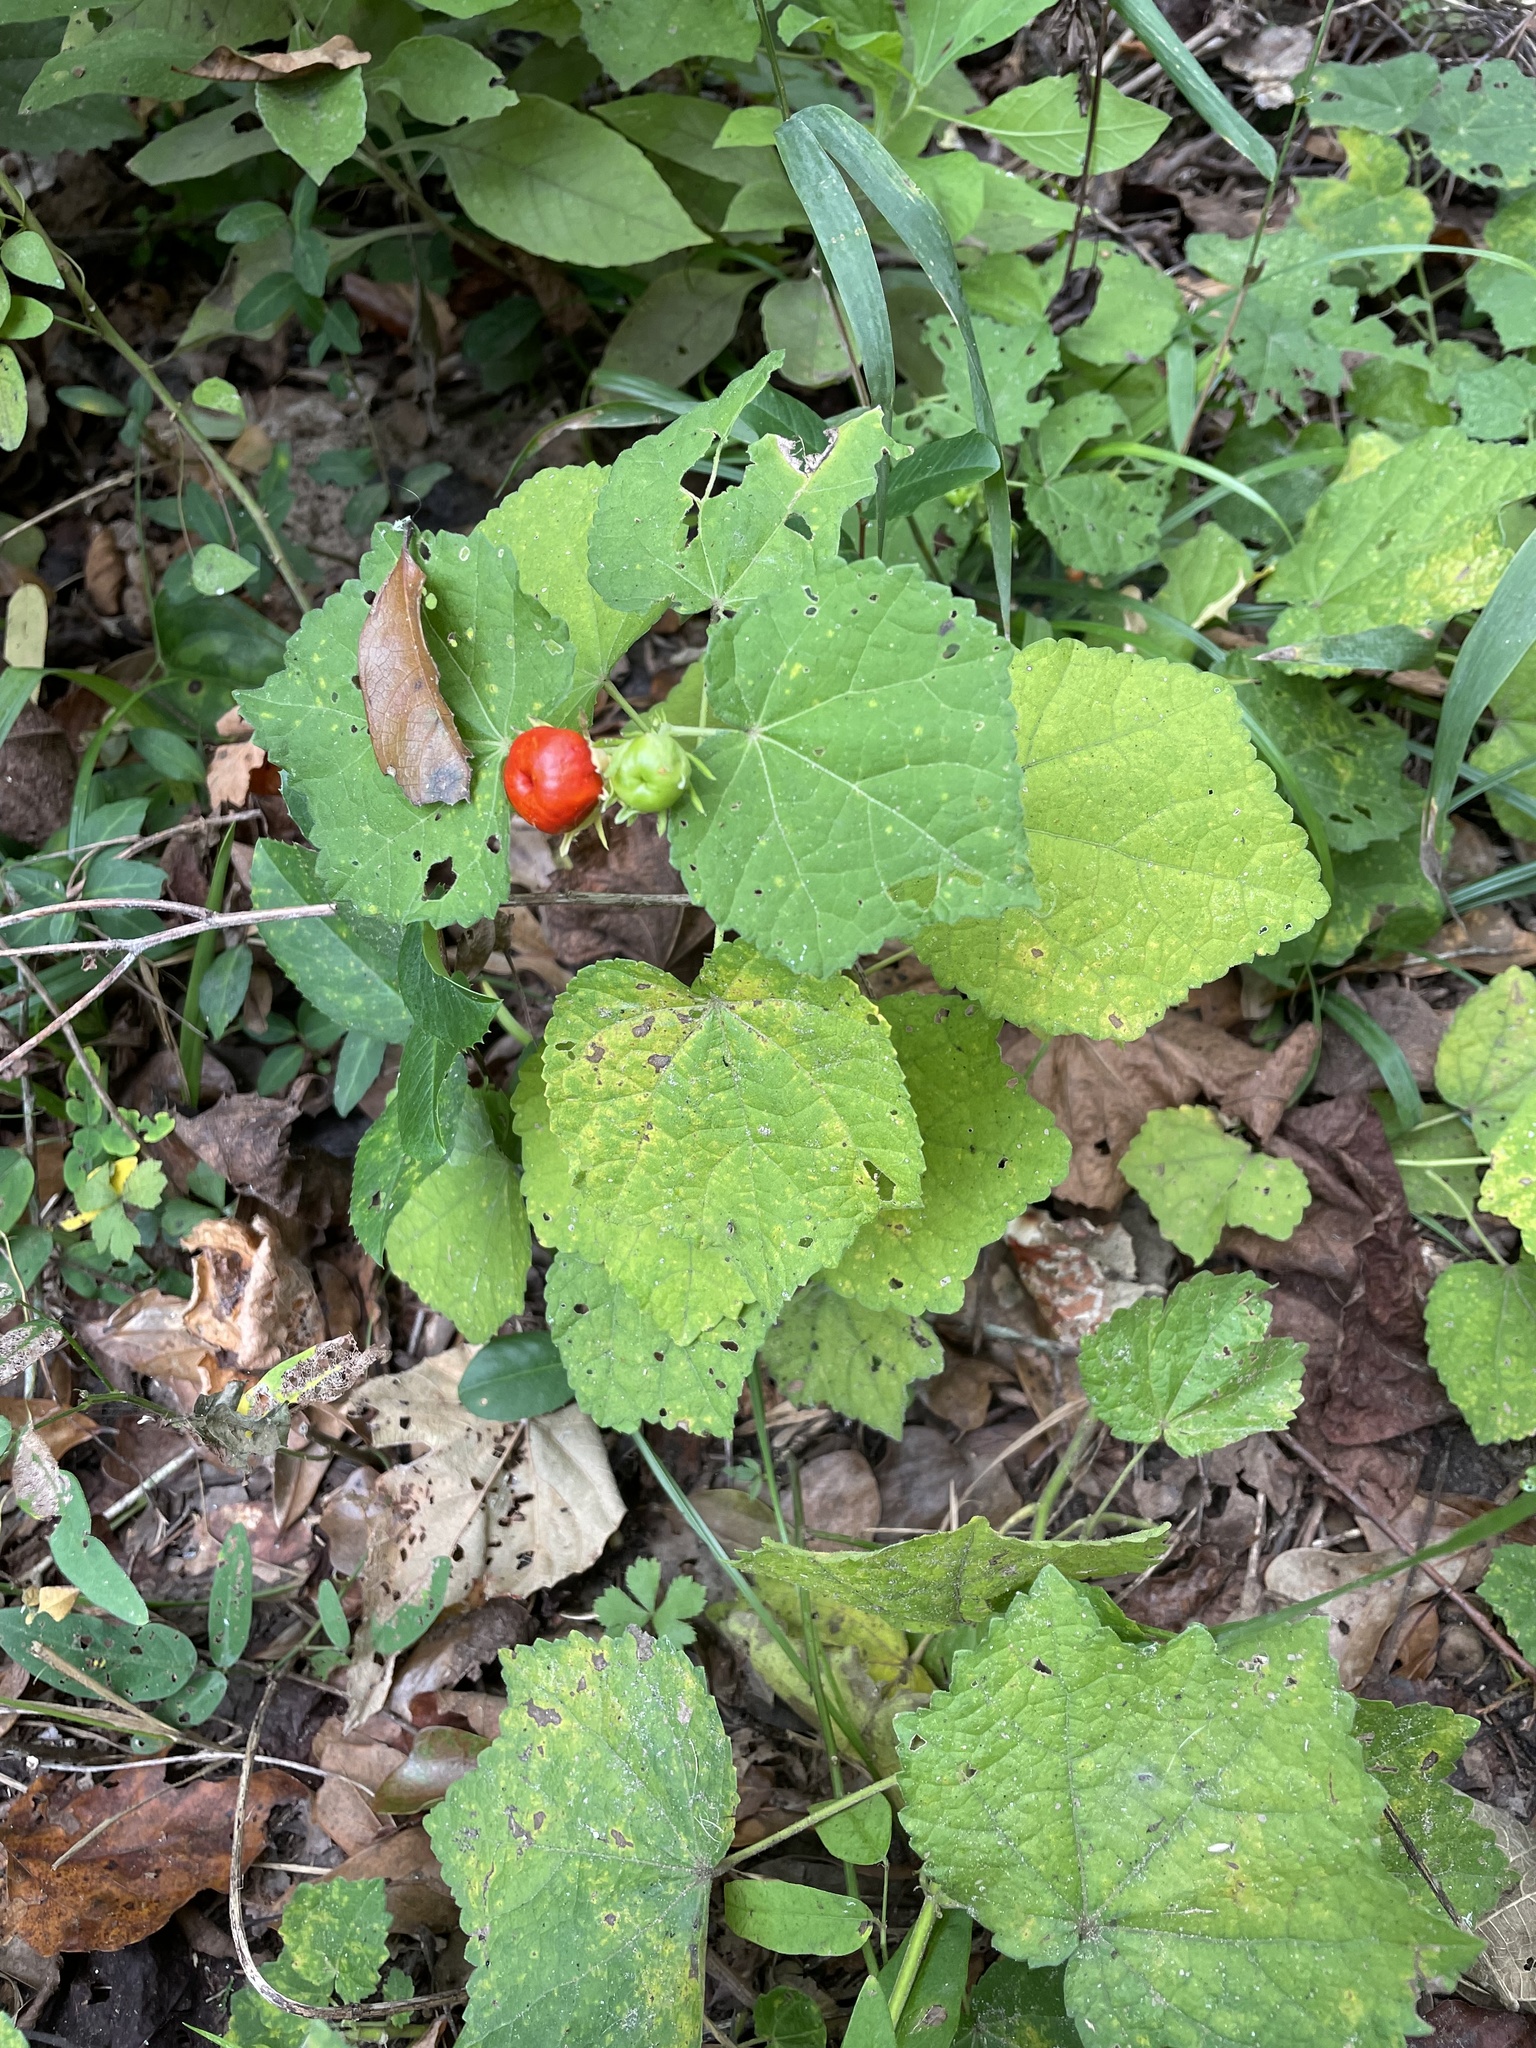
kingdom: Plantae
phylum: Tracheophyta
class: Magnoliopsida
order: Malvales
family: Malvaceae
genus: Malvaviscus
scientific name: Malvaviscus arboreus
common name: Wax mallow
